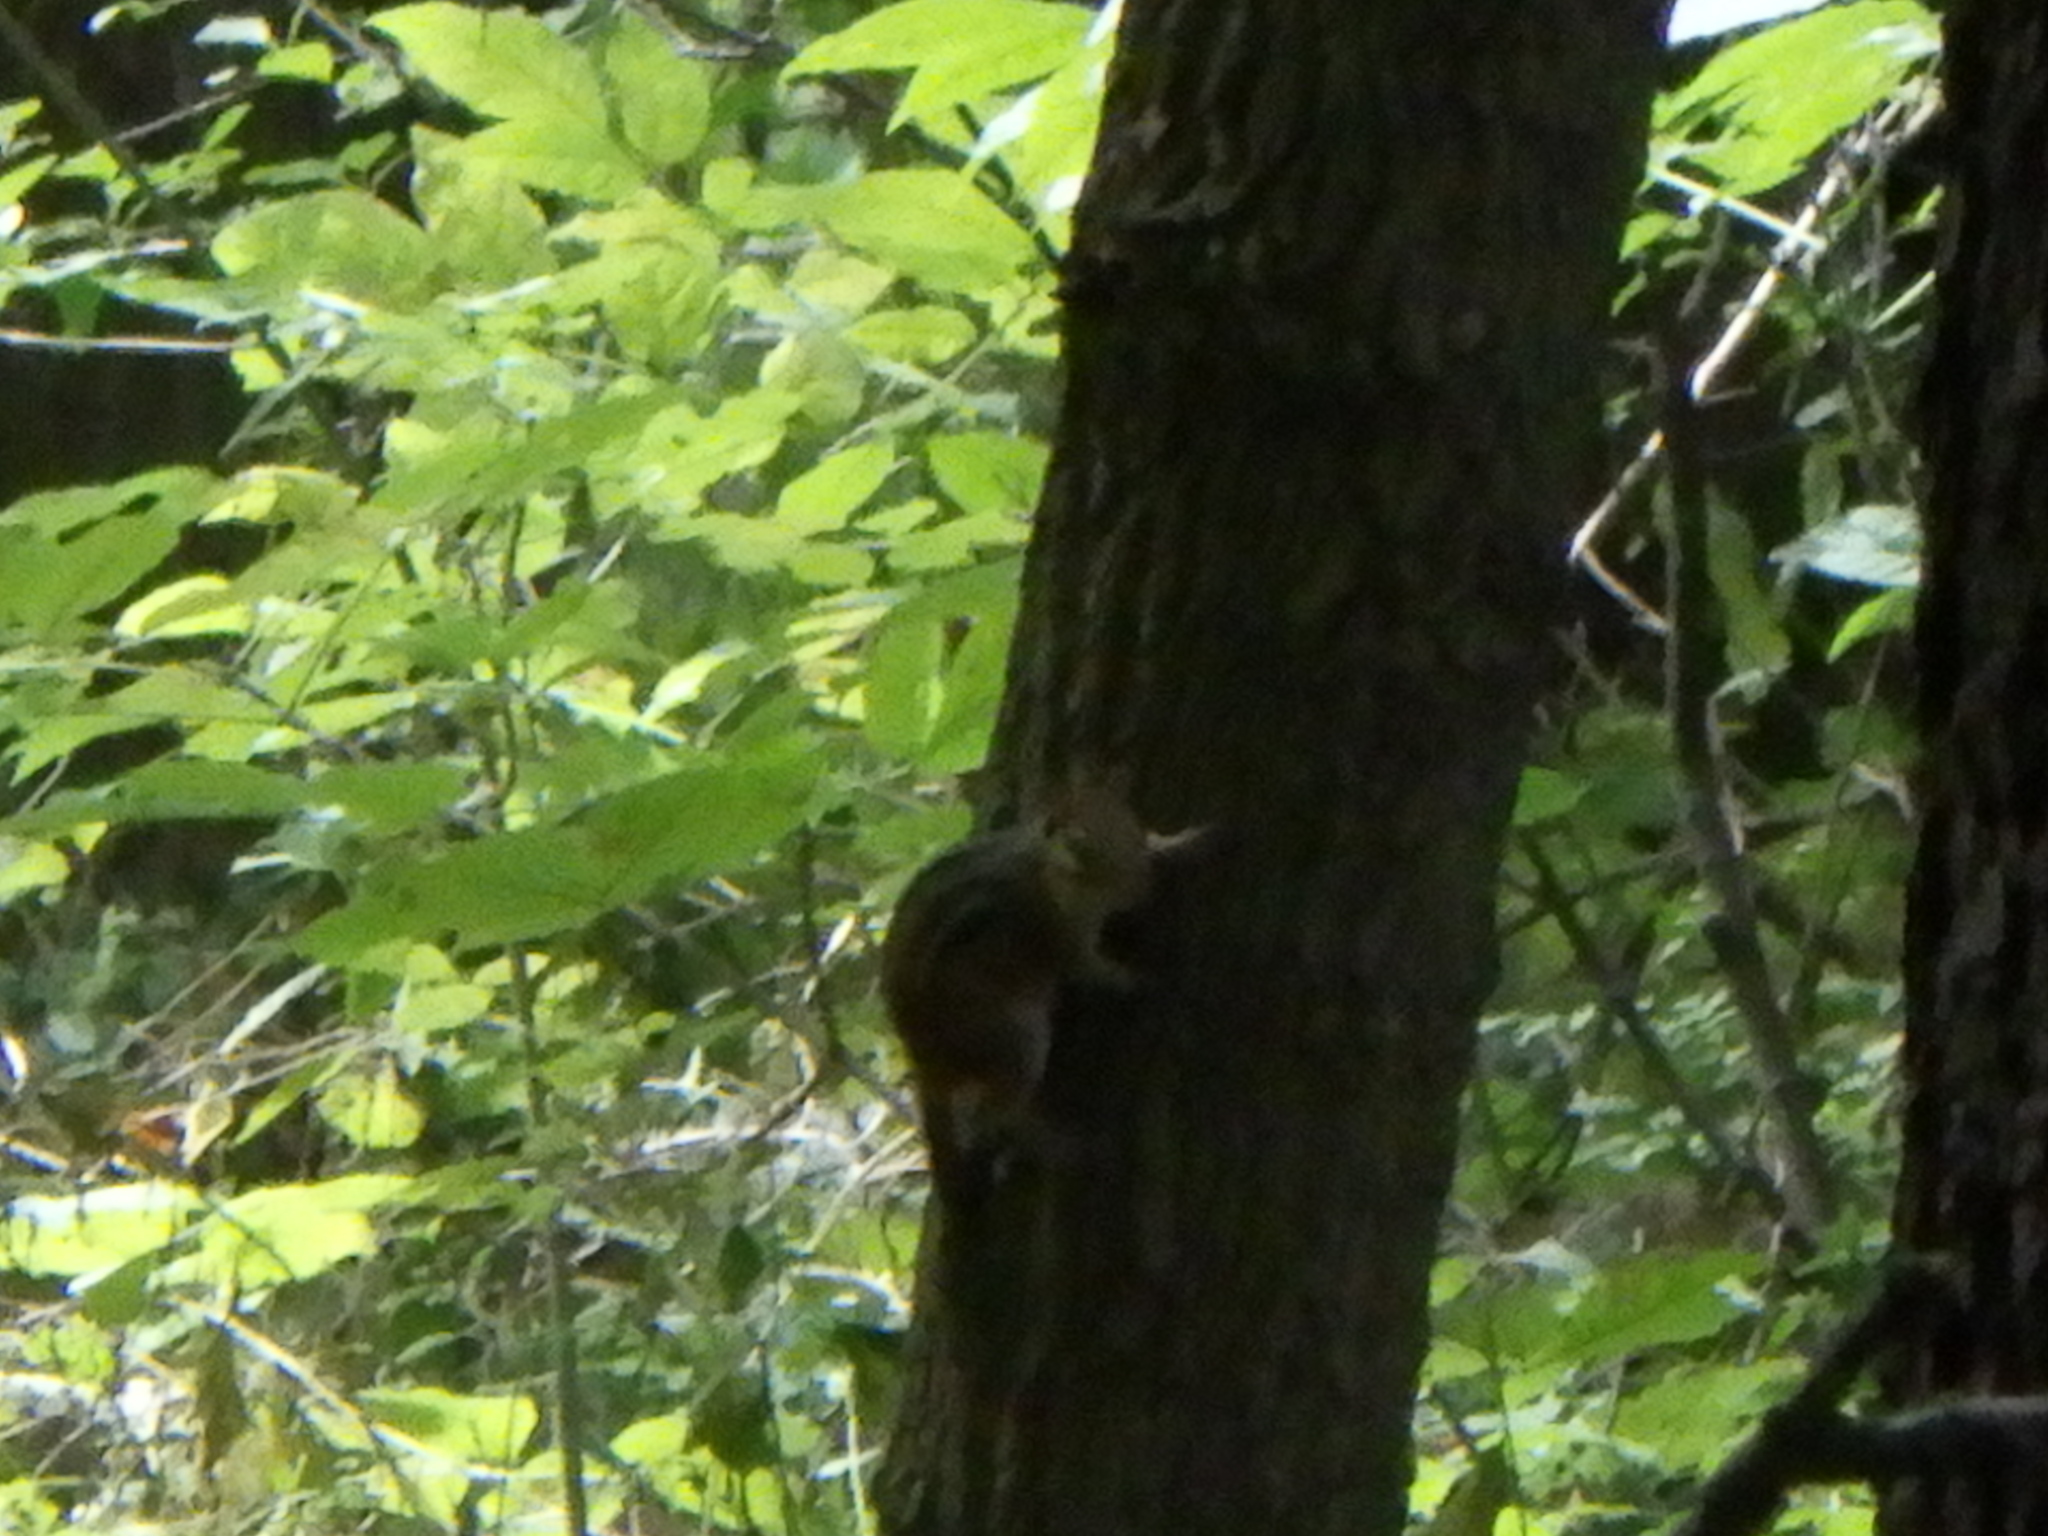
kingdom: Animalia
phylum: Chordata
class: Mammalia
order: Rodentia
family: Sciuridae
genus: Tamias
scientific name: Tamias striatus
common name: Eastern chipmunk
